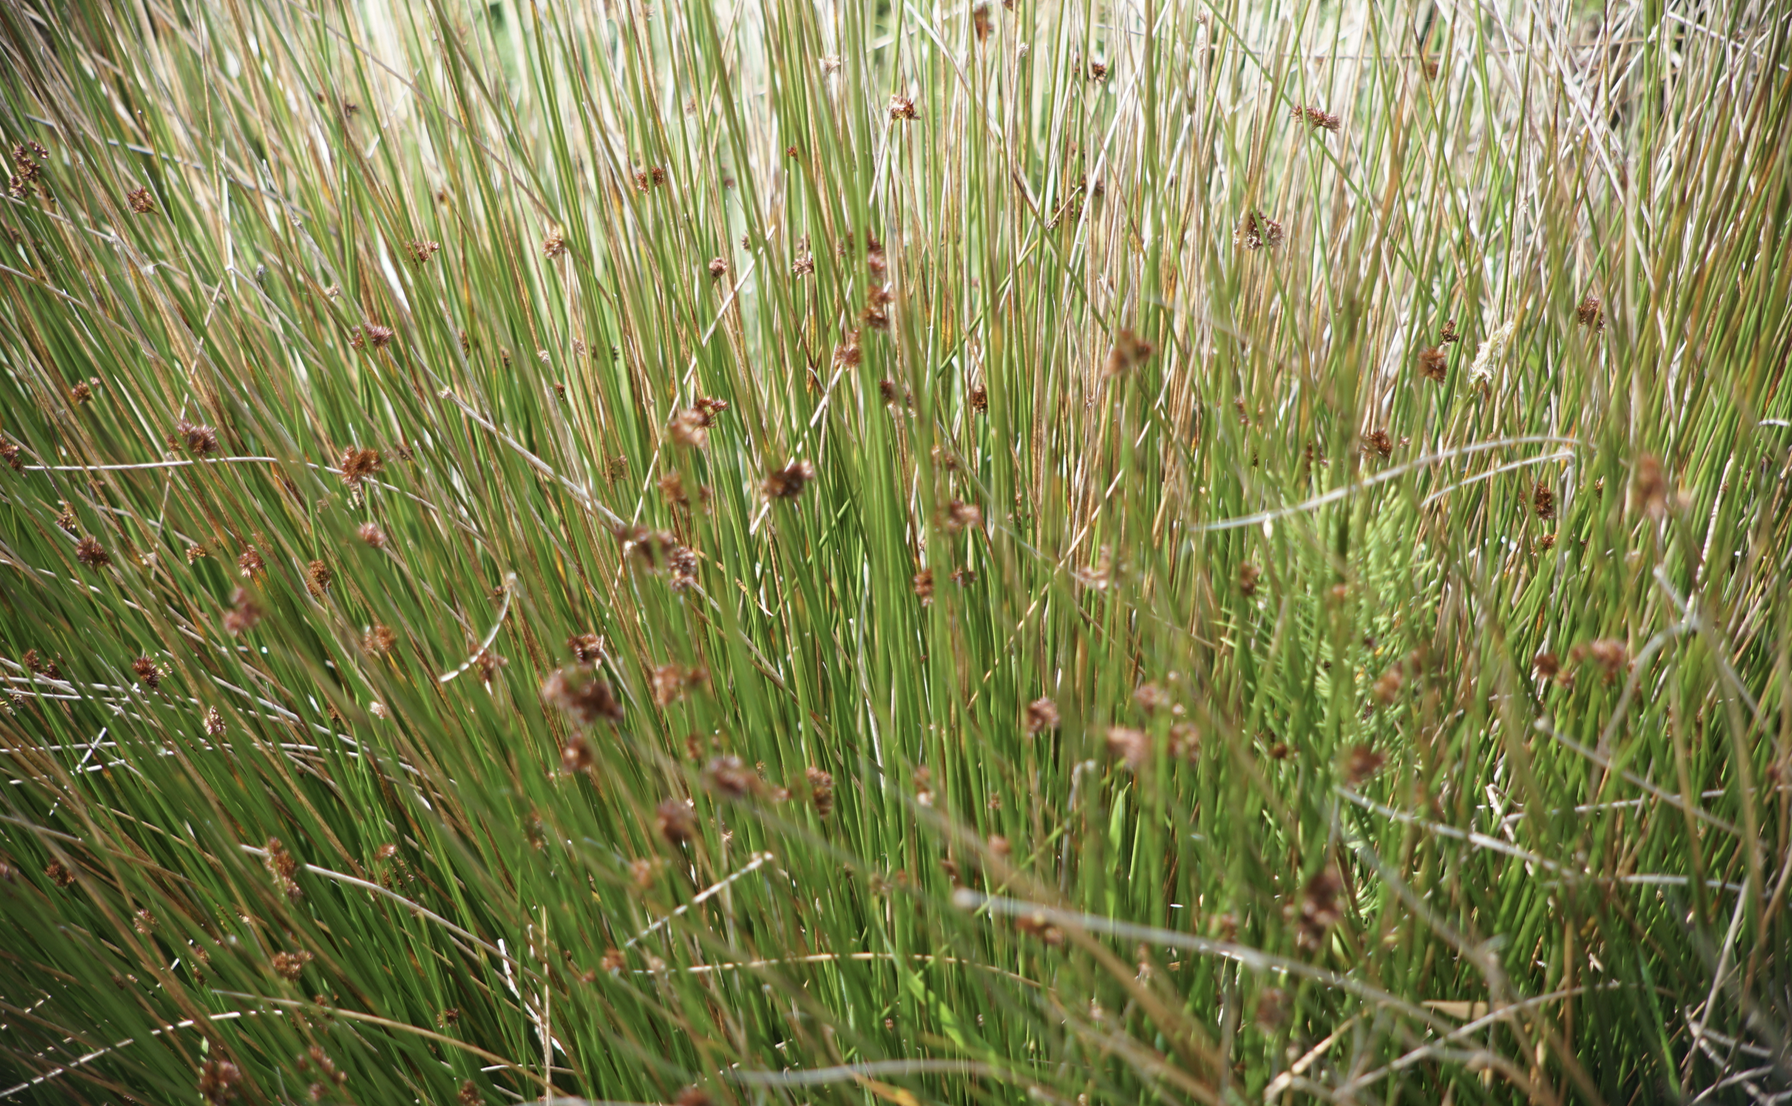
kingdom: Plantae
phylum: Tracheophyta
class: Liliopsida
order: Poales
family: Juncaceae
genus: Juncus
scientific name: Juncus patens
